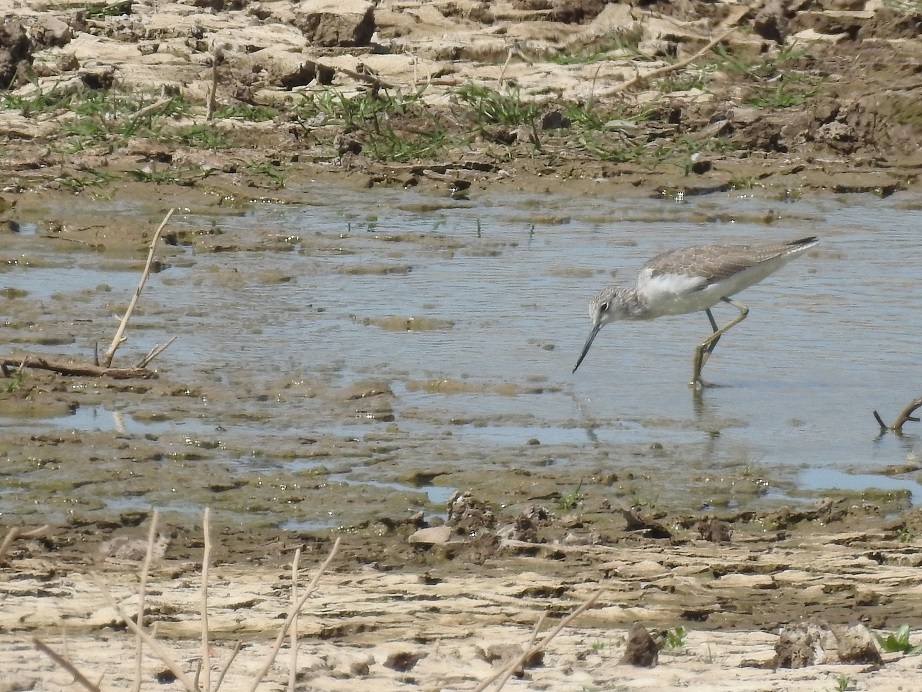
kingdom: Animalia
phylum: Chordata
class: Aves
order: Charadriiformes
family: Scolopacidae
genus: Tringa
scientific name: Tringa nebularia
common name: Common greenshank
